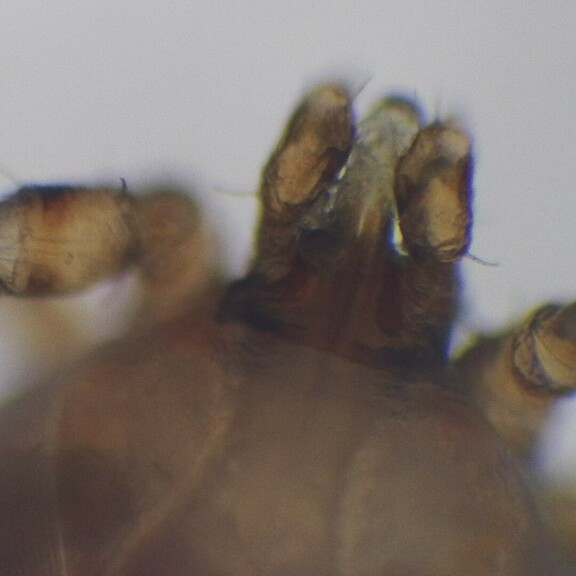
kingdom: Animalia
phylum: Arthropoda
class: Arachnida
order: Ixodida
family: Ixodidae
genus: Ixodes
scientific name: Ixodes cookei
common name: American castor bean tick
